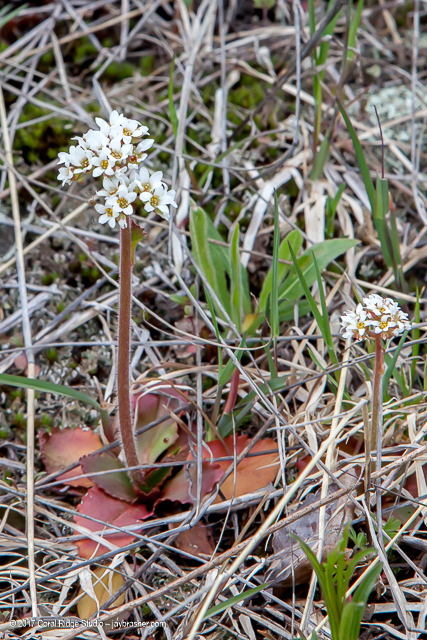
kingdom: Plantae
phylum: Tracheophyta
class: Magnoliopsida
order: Saxifragales
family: Saxifragaceae
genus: Micranthes
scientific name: Micranthes virginiensis
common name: Early saxifrage
